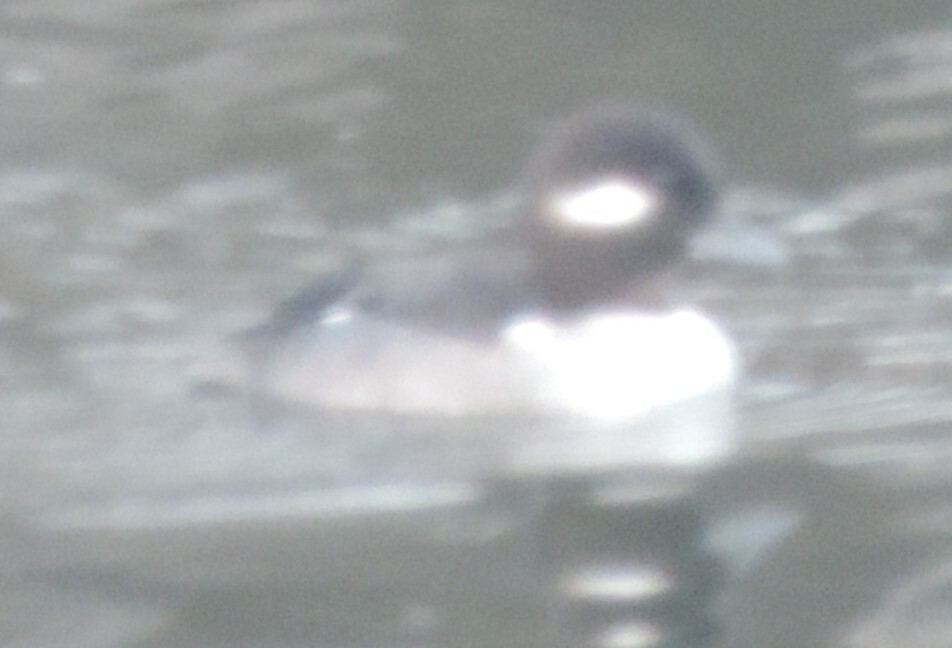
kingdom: Animalia
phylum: Chordata
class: Aves
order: Anseriformes
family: Anatidae
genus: Bucephala
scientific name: Bucephala albeola
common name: Bufflehead
